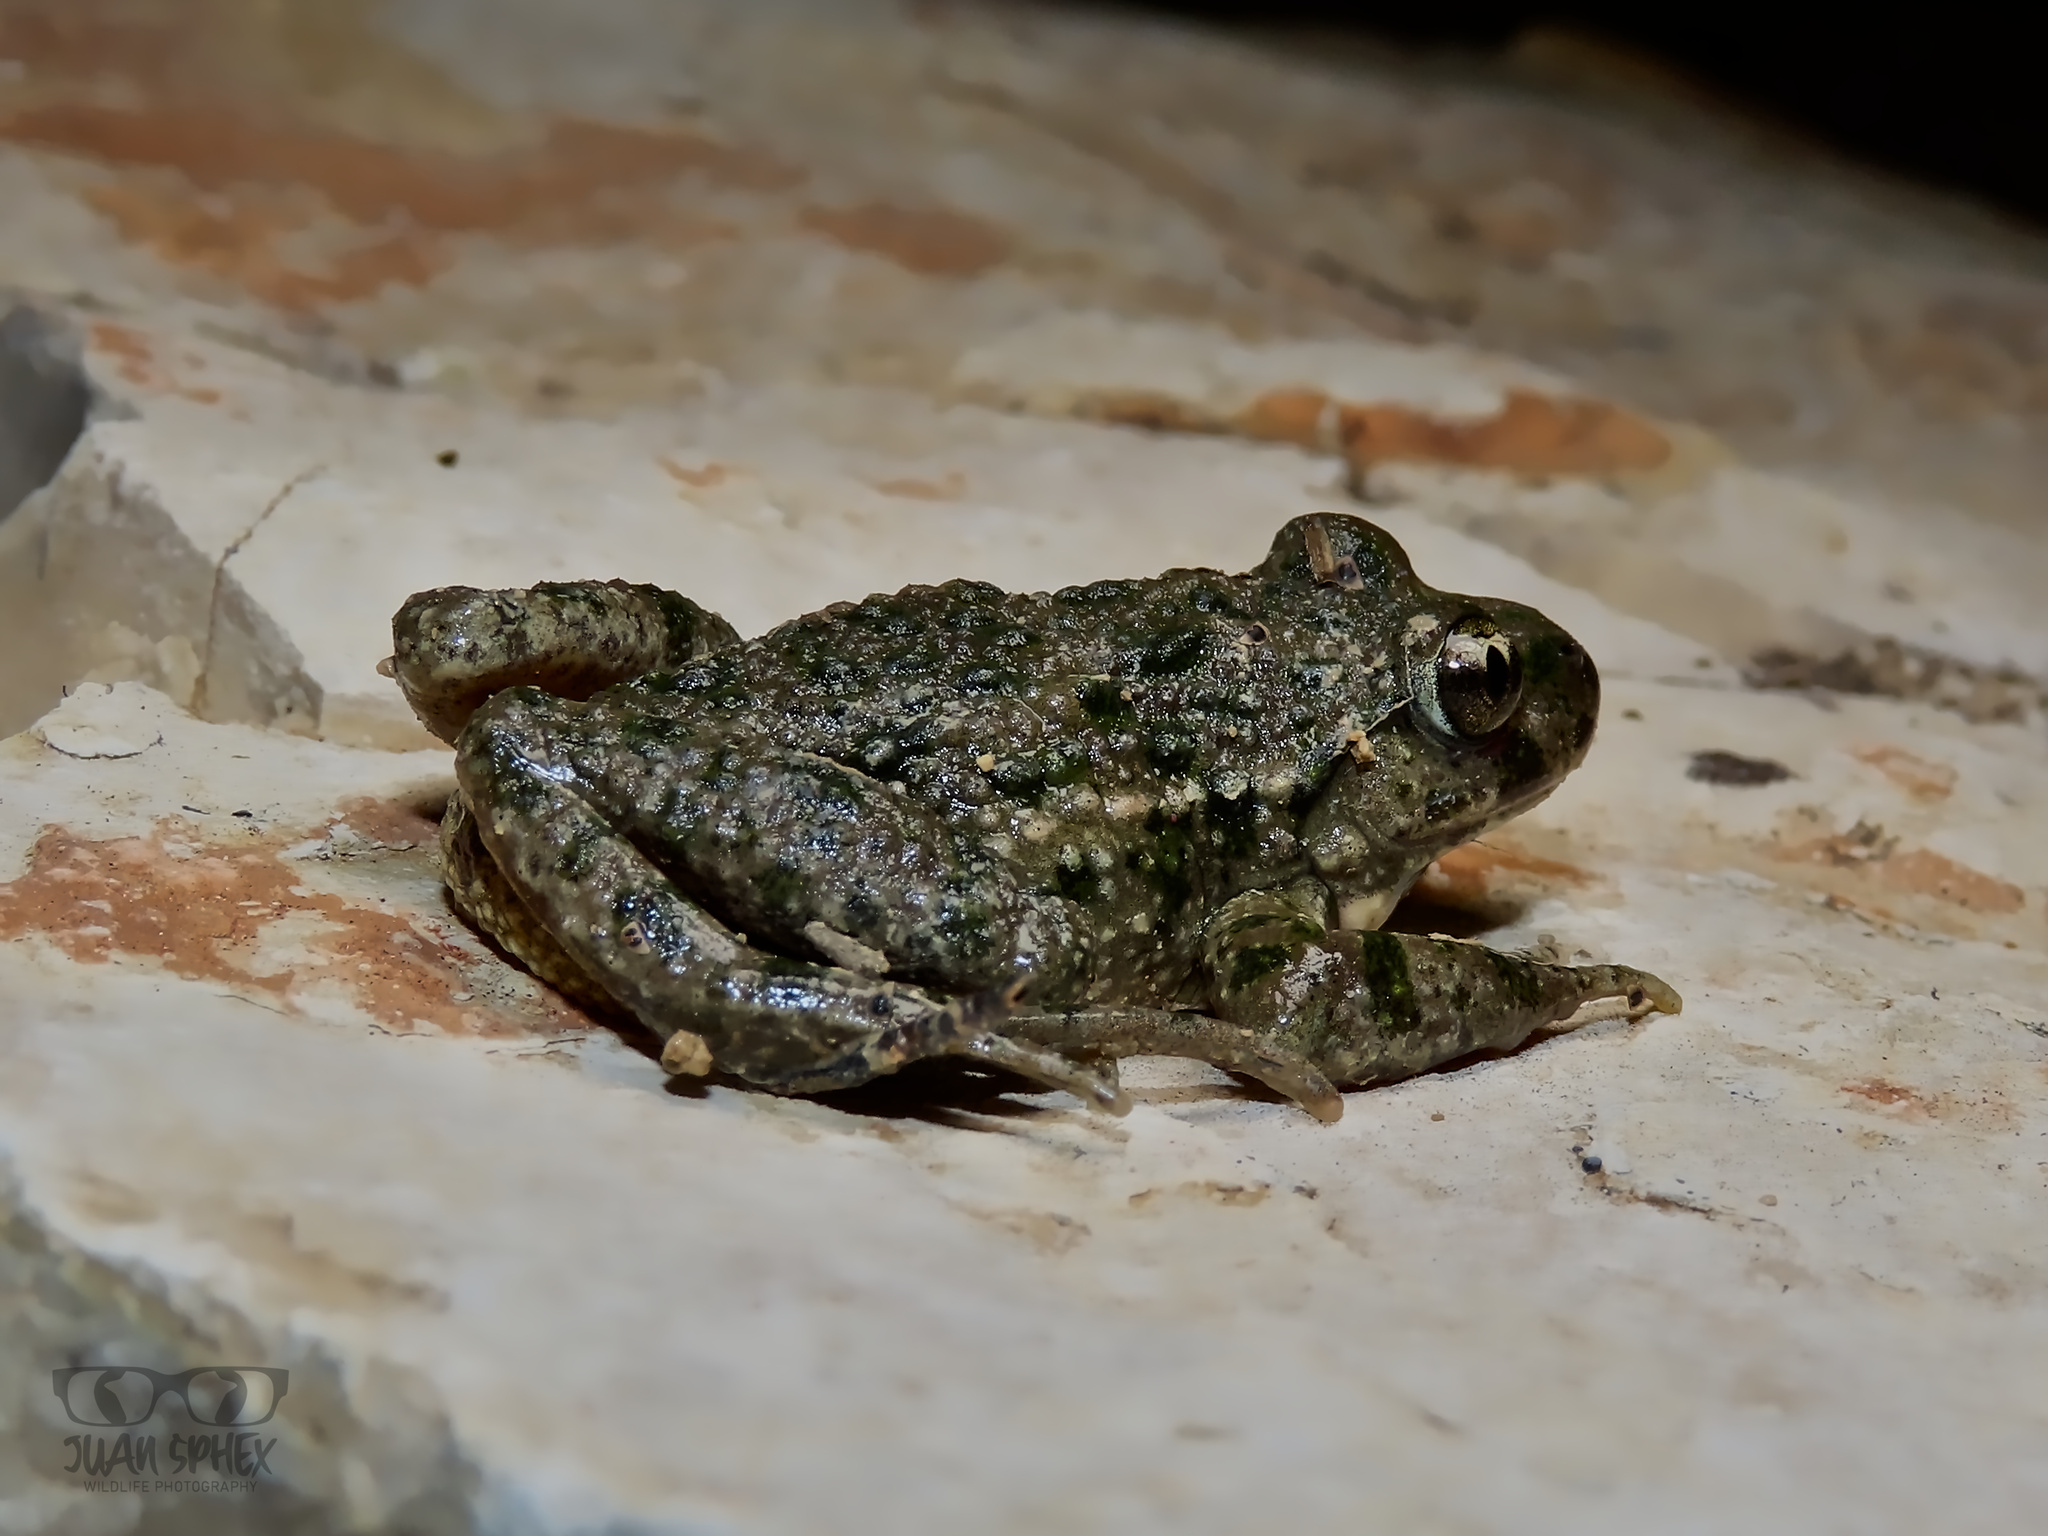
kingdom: Animalia
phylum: Chordata
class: Amphibia
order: Anura
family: Pelodytidae
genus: Pelodytes
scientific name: Pelodytes hespericus
